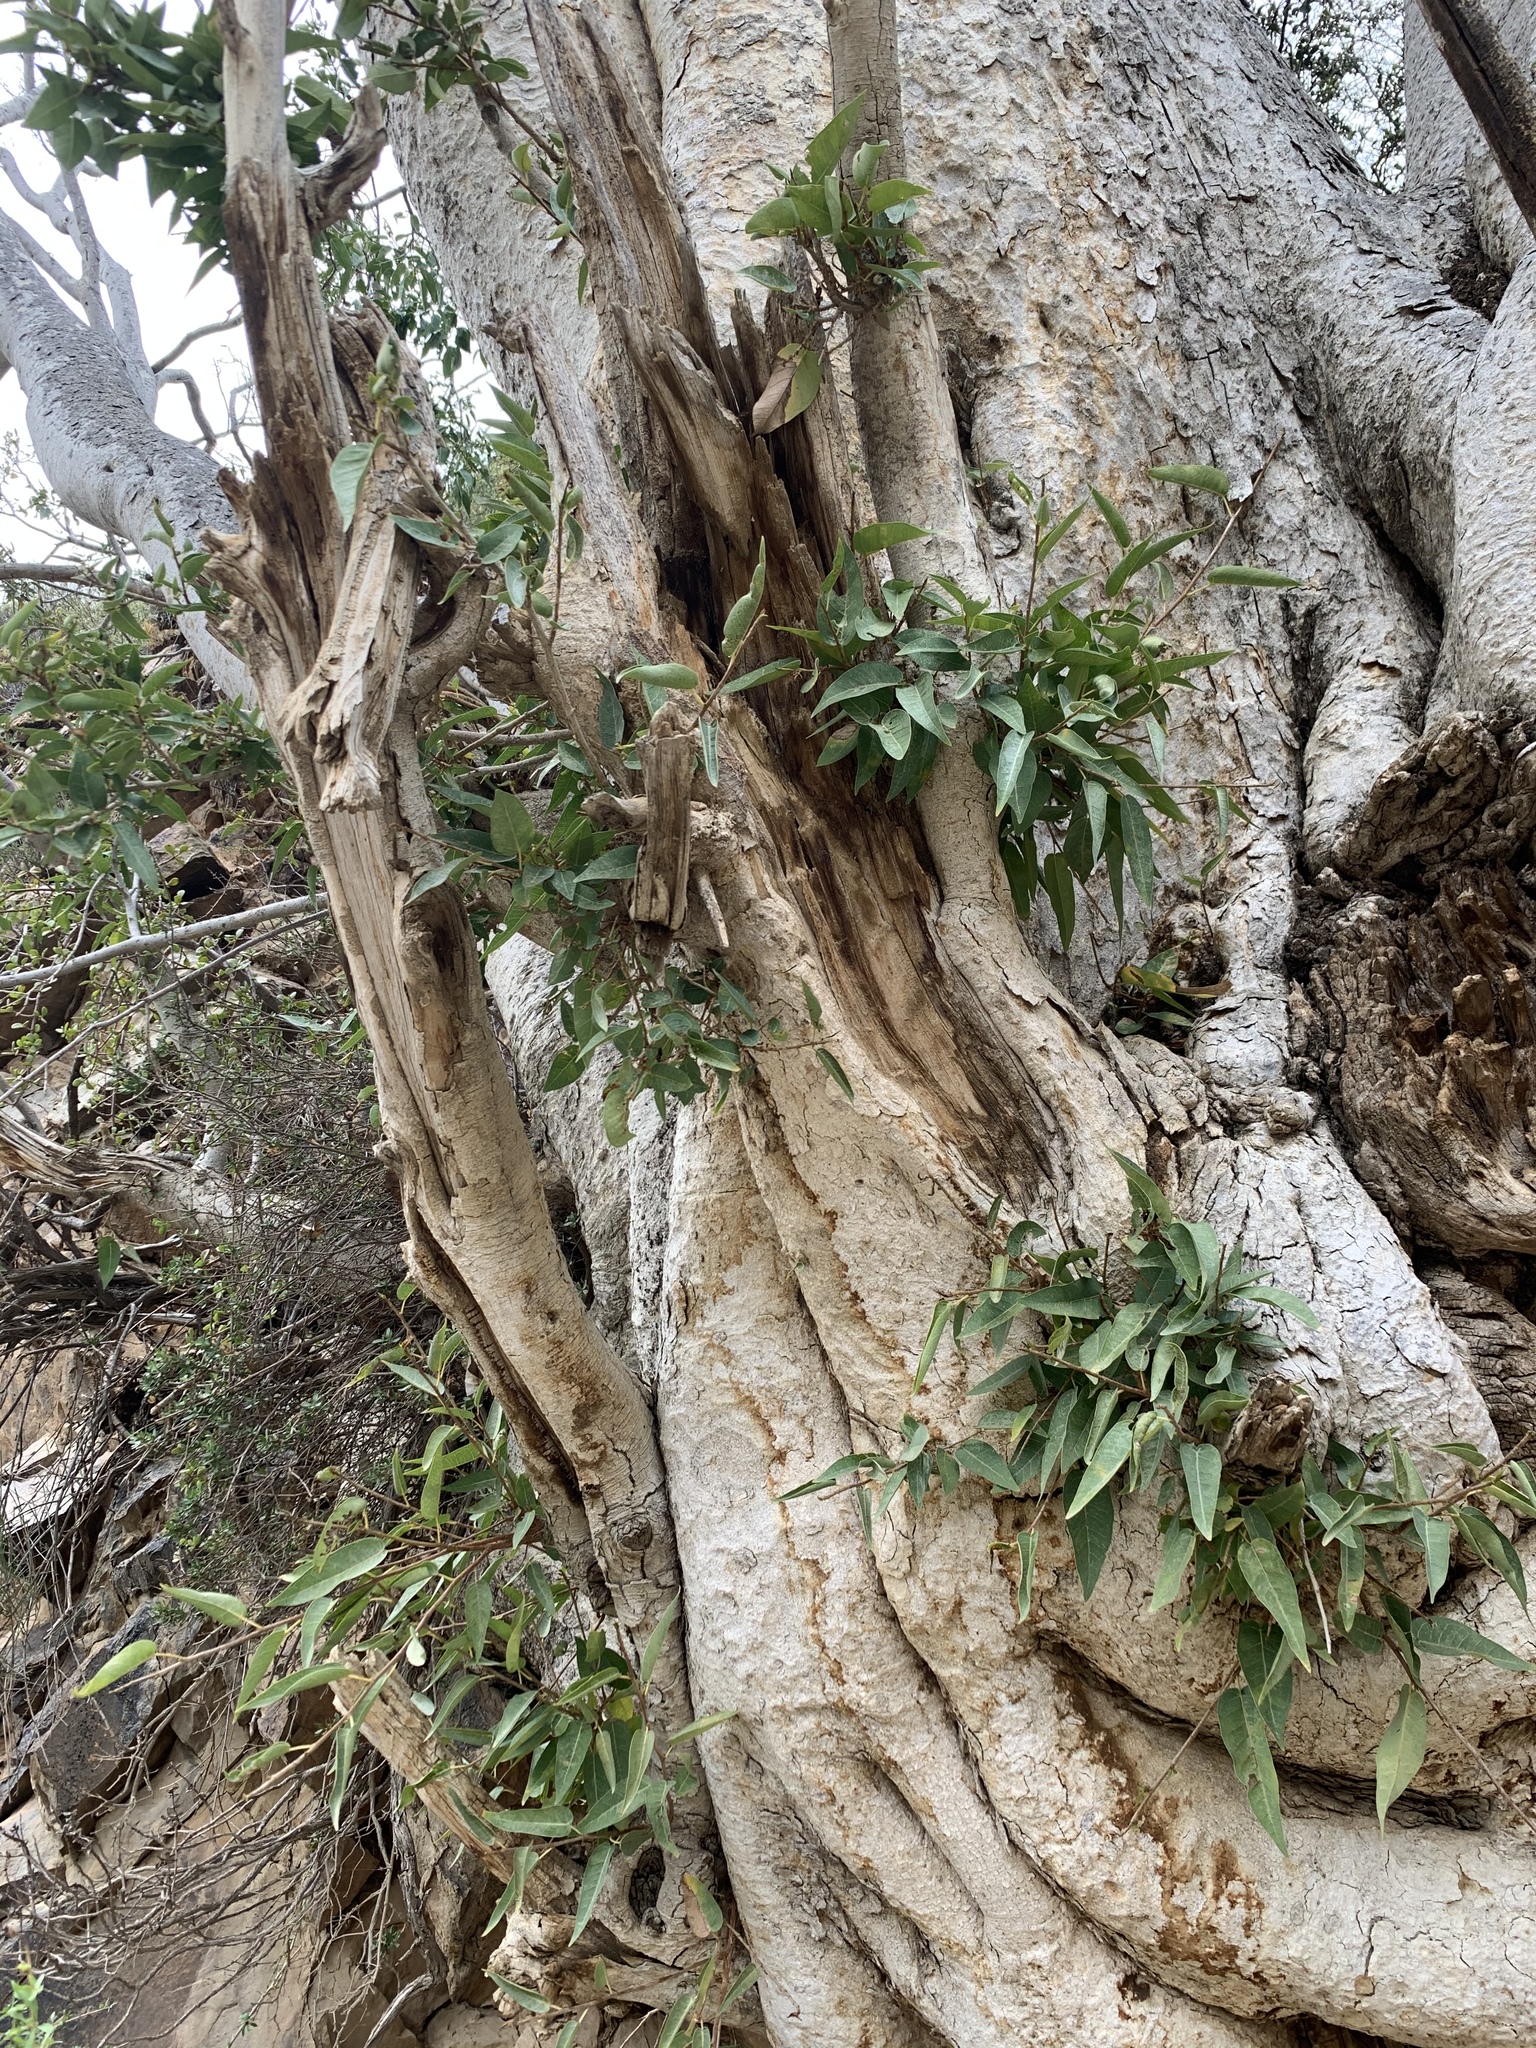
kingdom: Plantae
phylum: Tracheophyta
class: Magnoliopsida
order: Rosales
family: Moraceae
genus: Ficus
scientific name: Ficus cordata
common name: Namaqua rock fig
